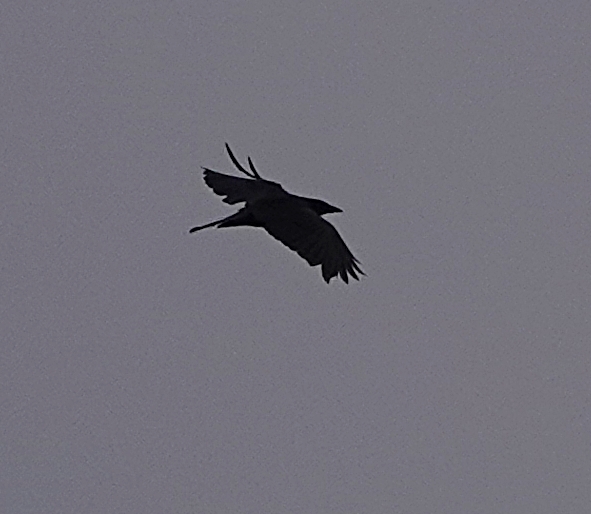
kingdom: Animalia
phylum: Chordata
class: Aves
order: Passeriformes
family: Corvidae
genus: Corvus
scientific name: Corvus brachyrhynchos
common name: American crow
